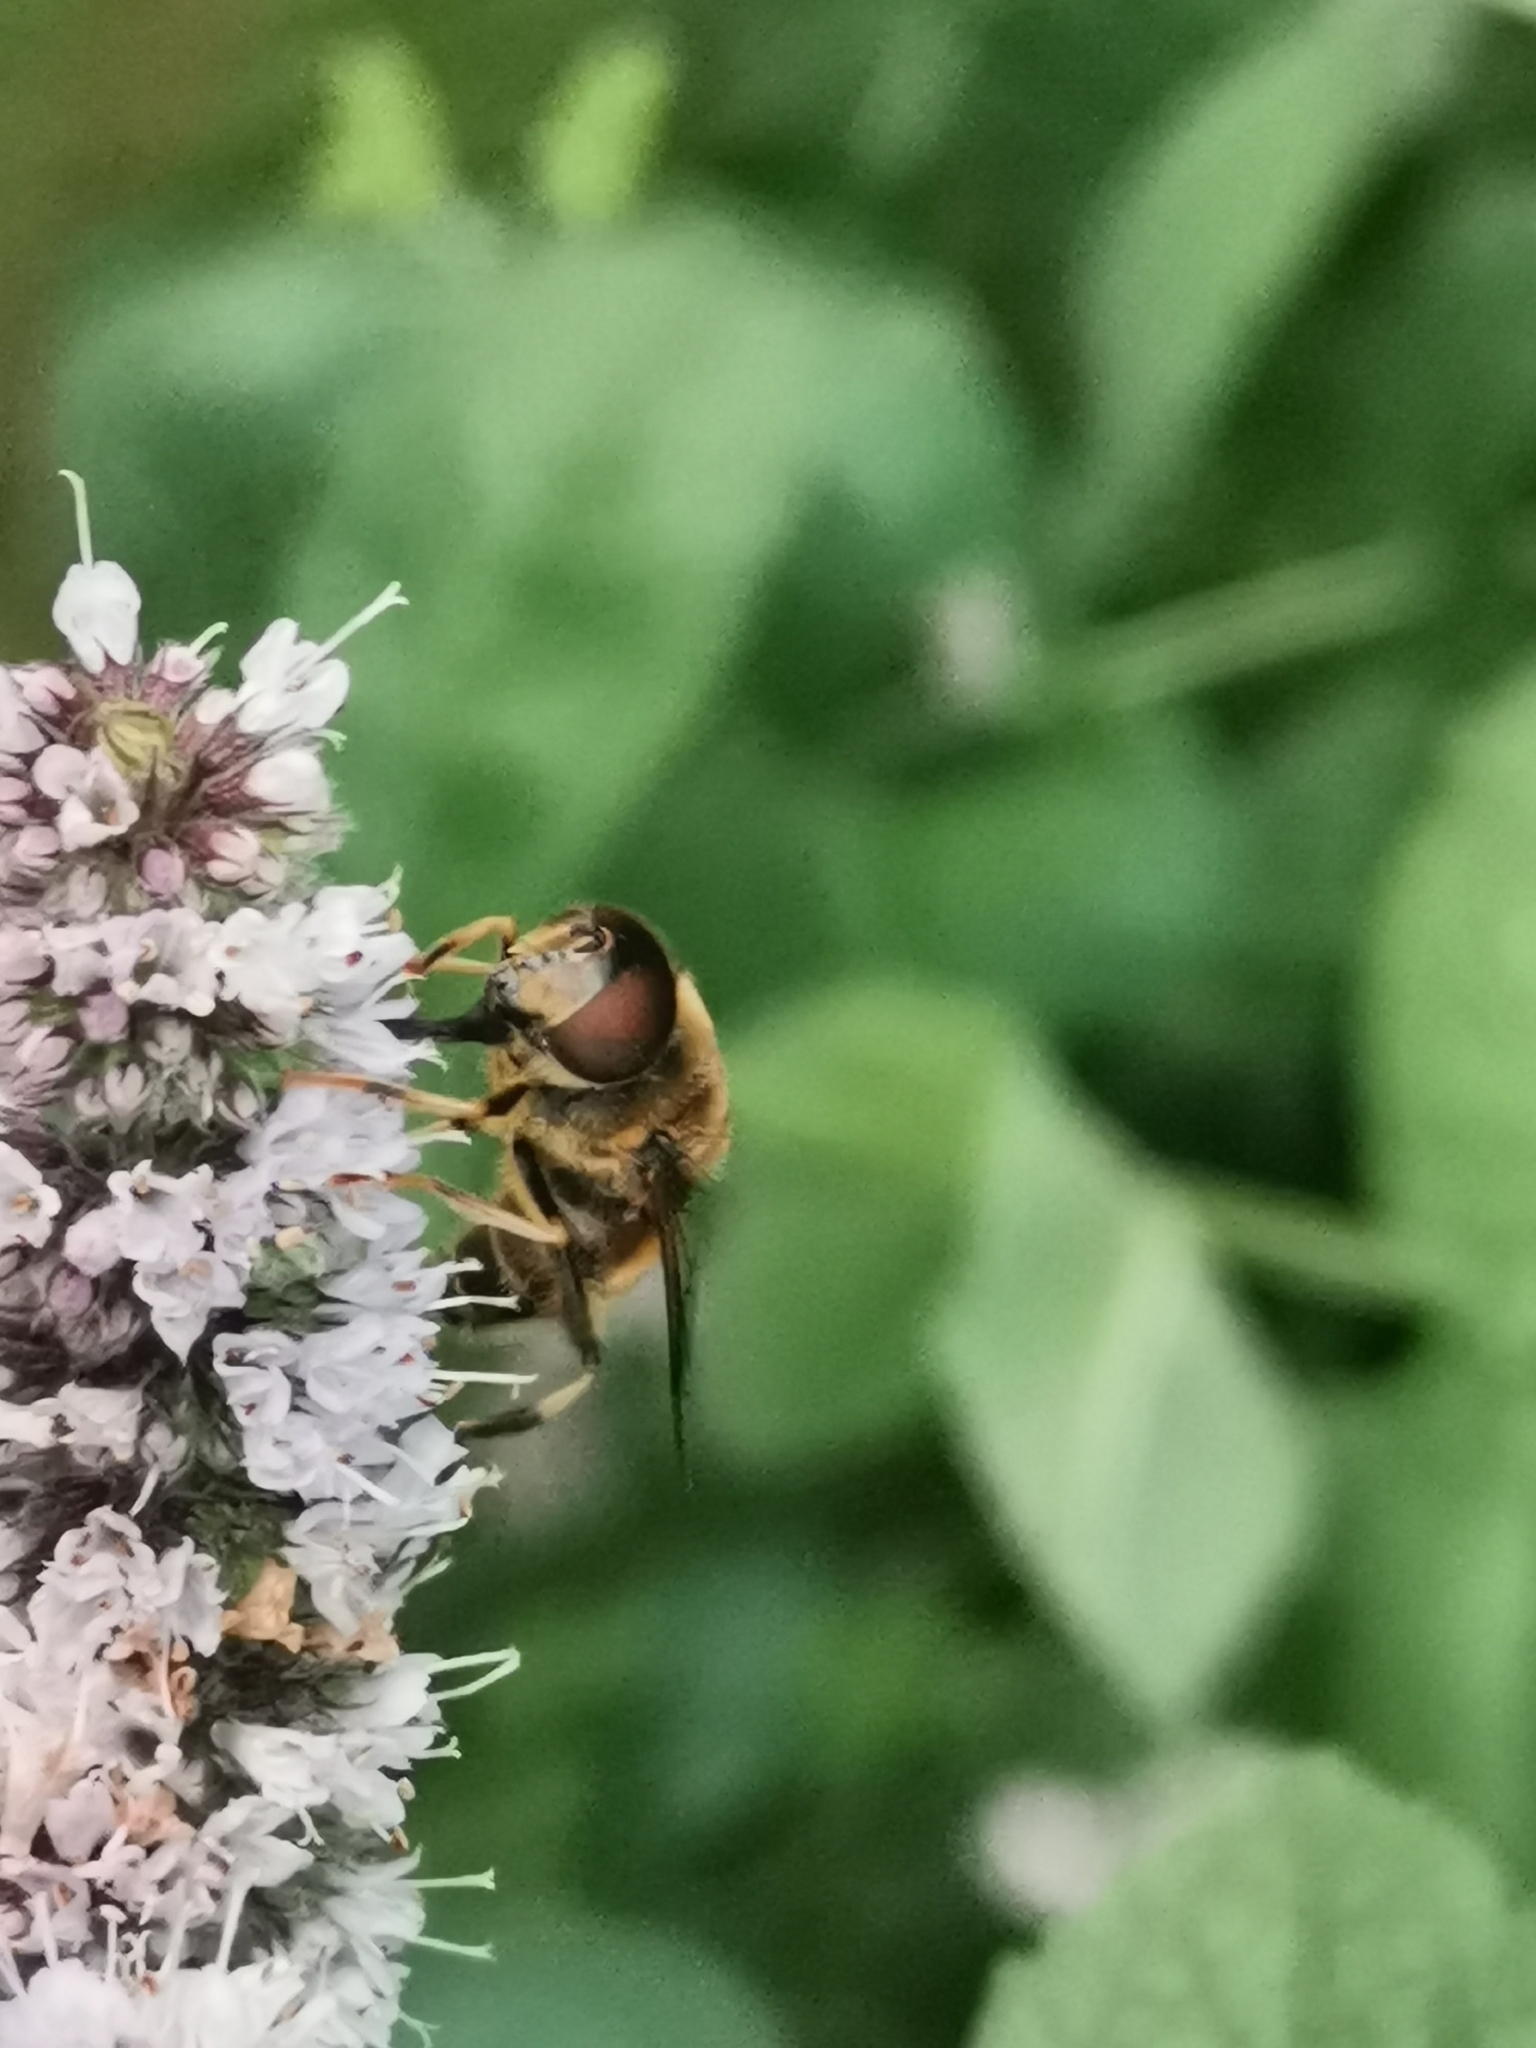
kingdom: Animalia
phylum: Arthropoda
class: Insecta
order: Diptera
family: Syrphidae
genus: Eristalis
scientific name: Eristalis pertinax
